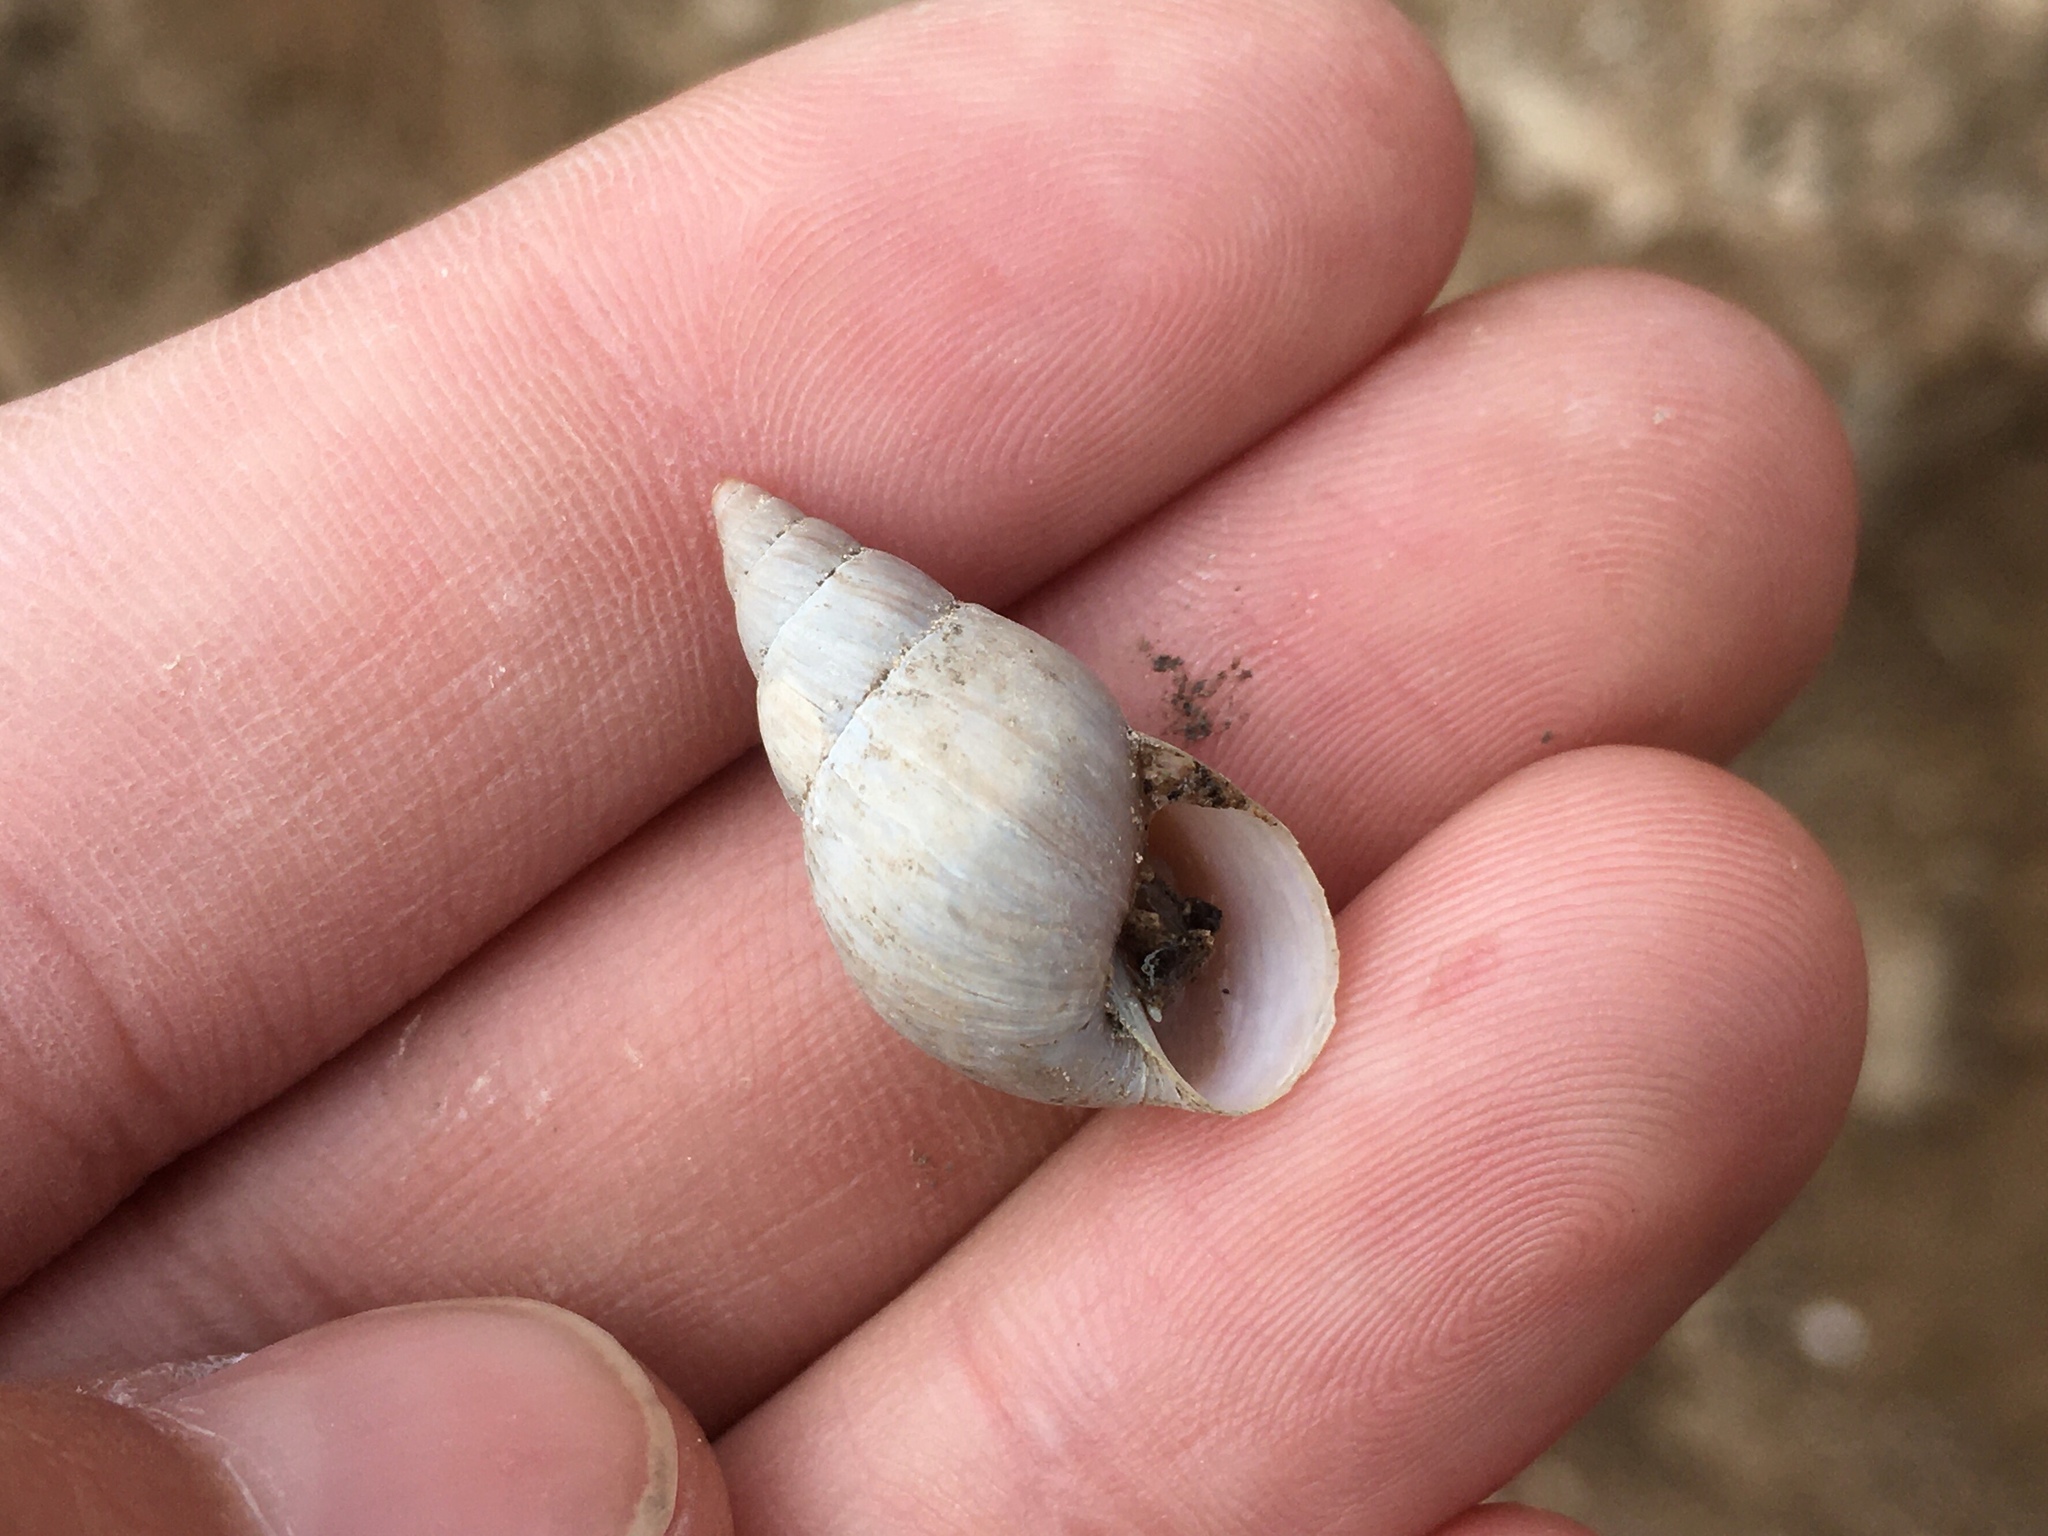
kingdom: Animalia
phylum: Mollusca
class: Gastropoda
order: Stylommatophora
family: Bulimulidae
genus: Bulimulus
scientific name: Bulimulus bonariensis
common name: Snail
